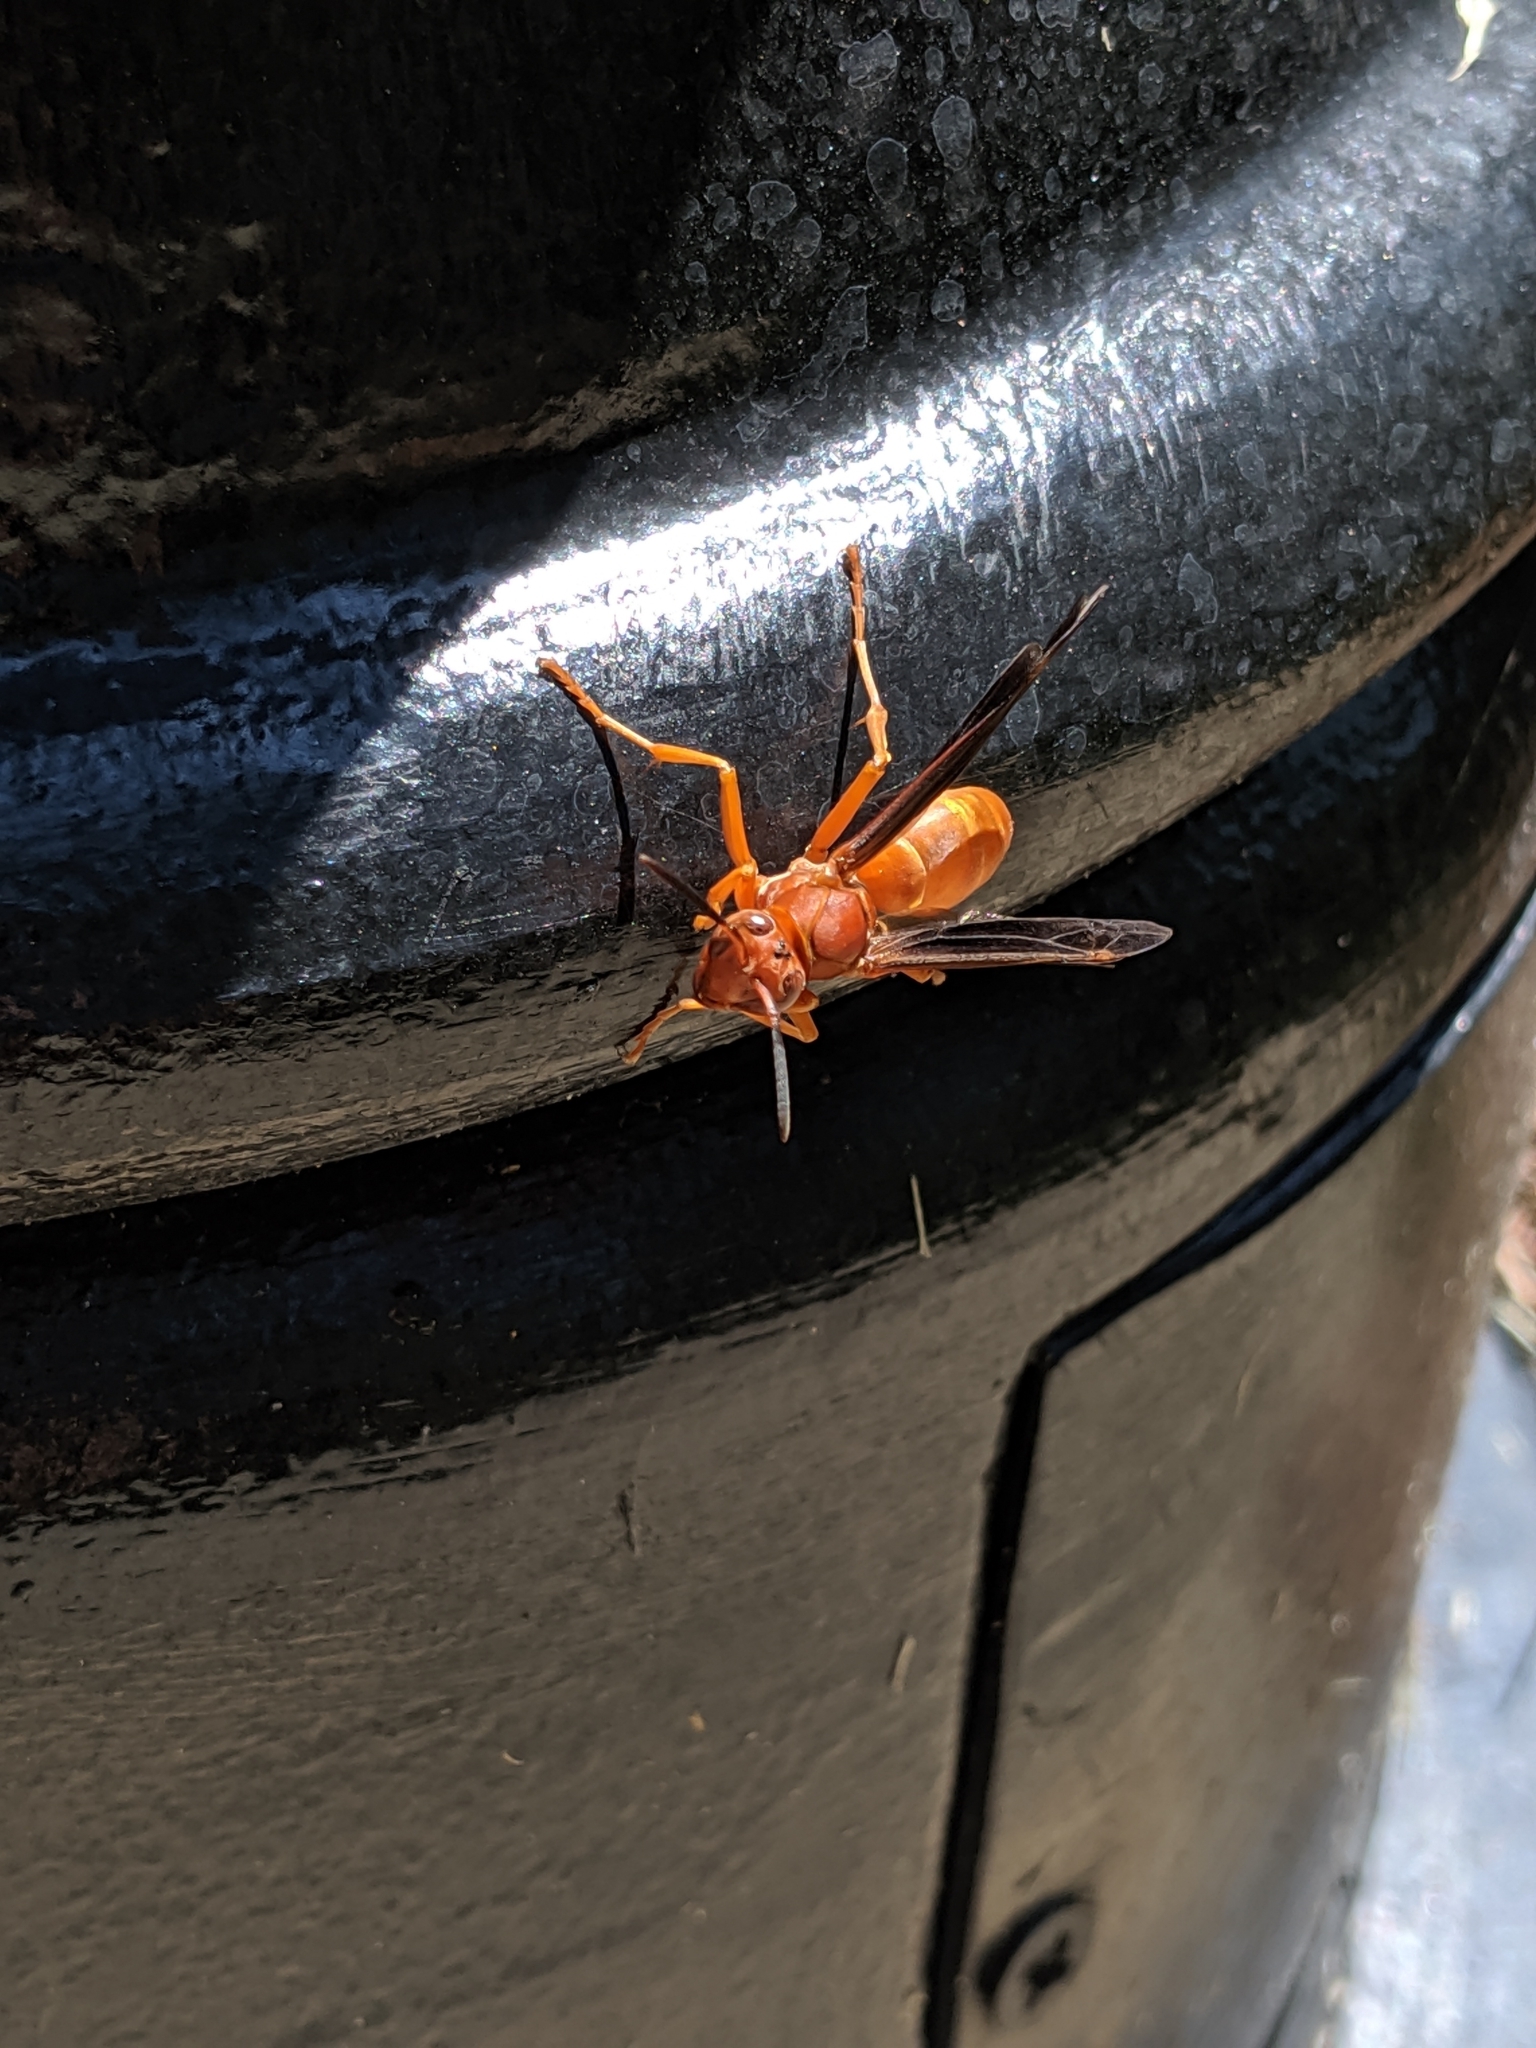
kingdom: Animalia
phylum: Arthropoda
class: Insecta
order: Hymenoptera
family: Eumenidae
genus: Polistes
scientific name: Polistes carolina
